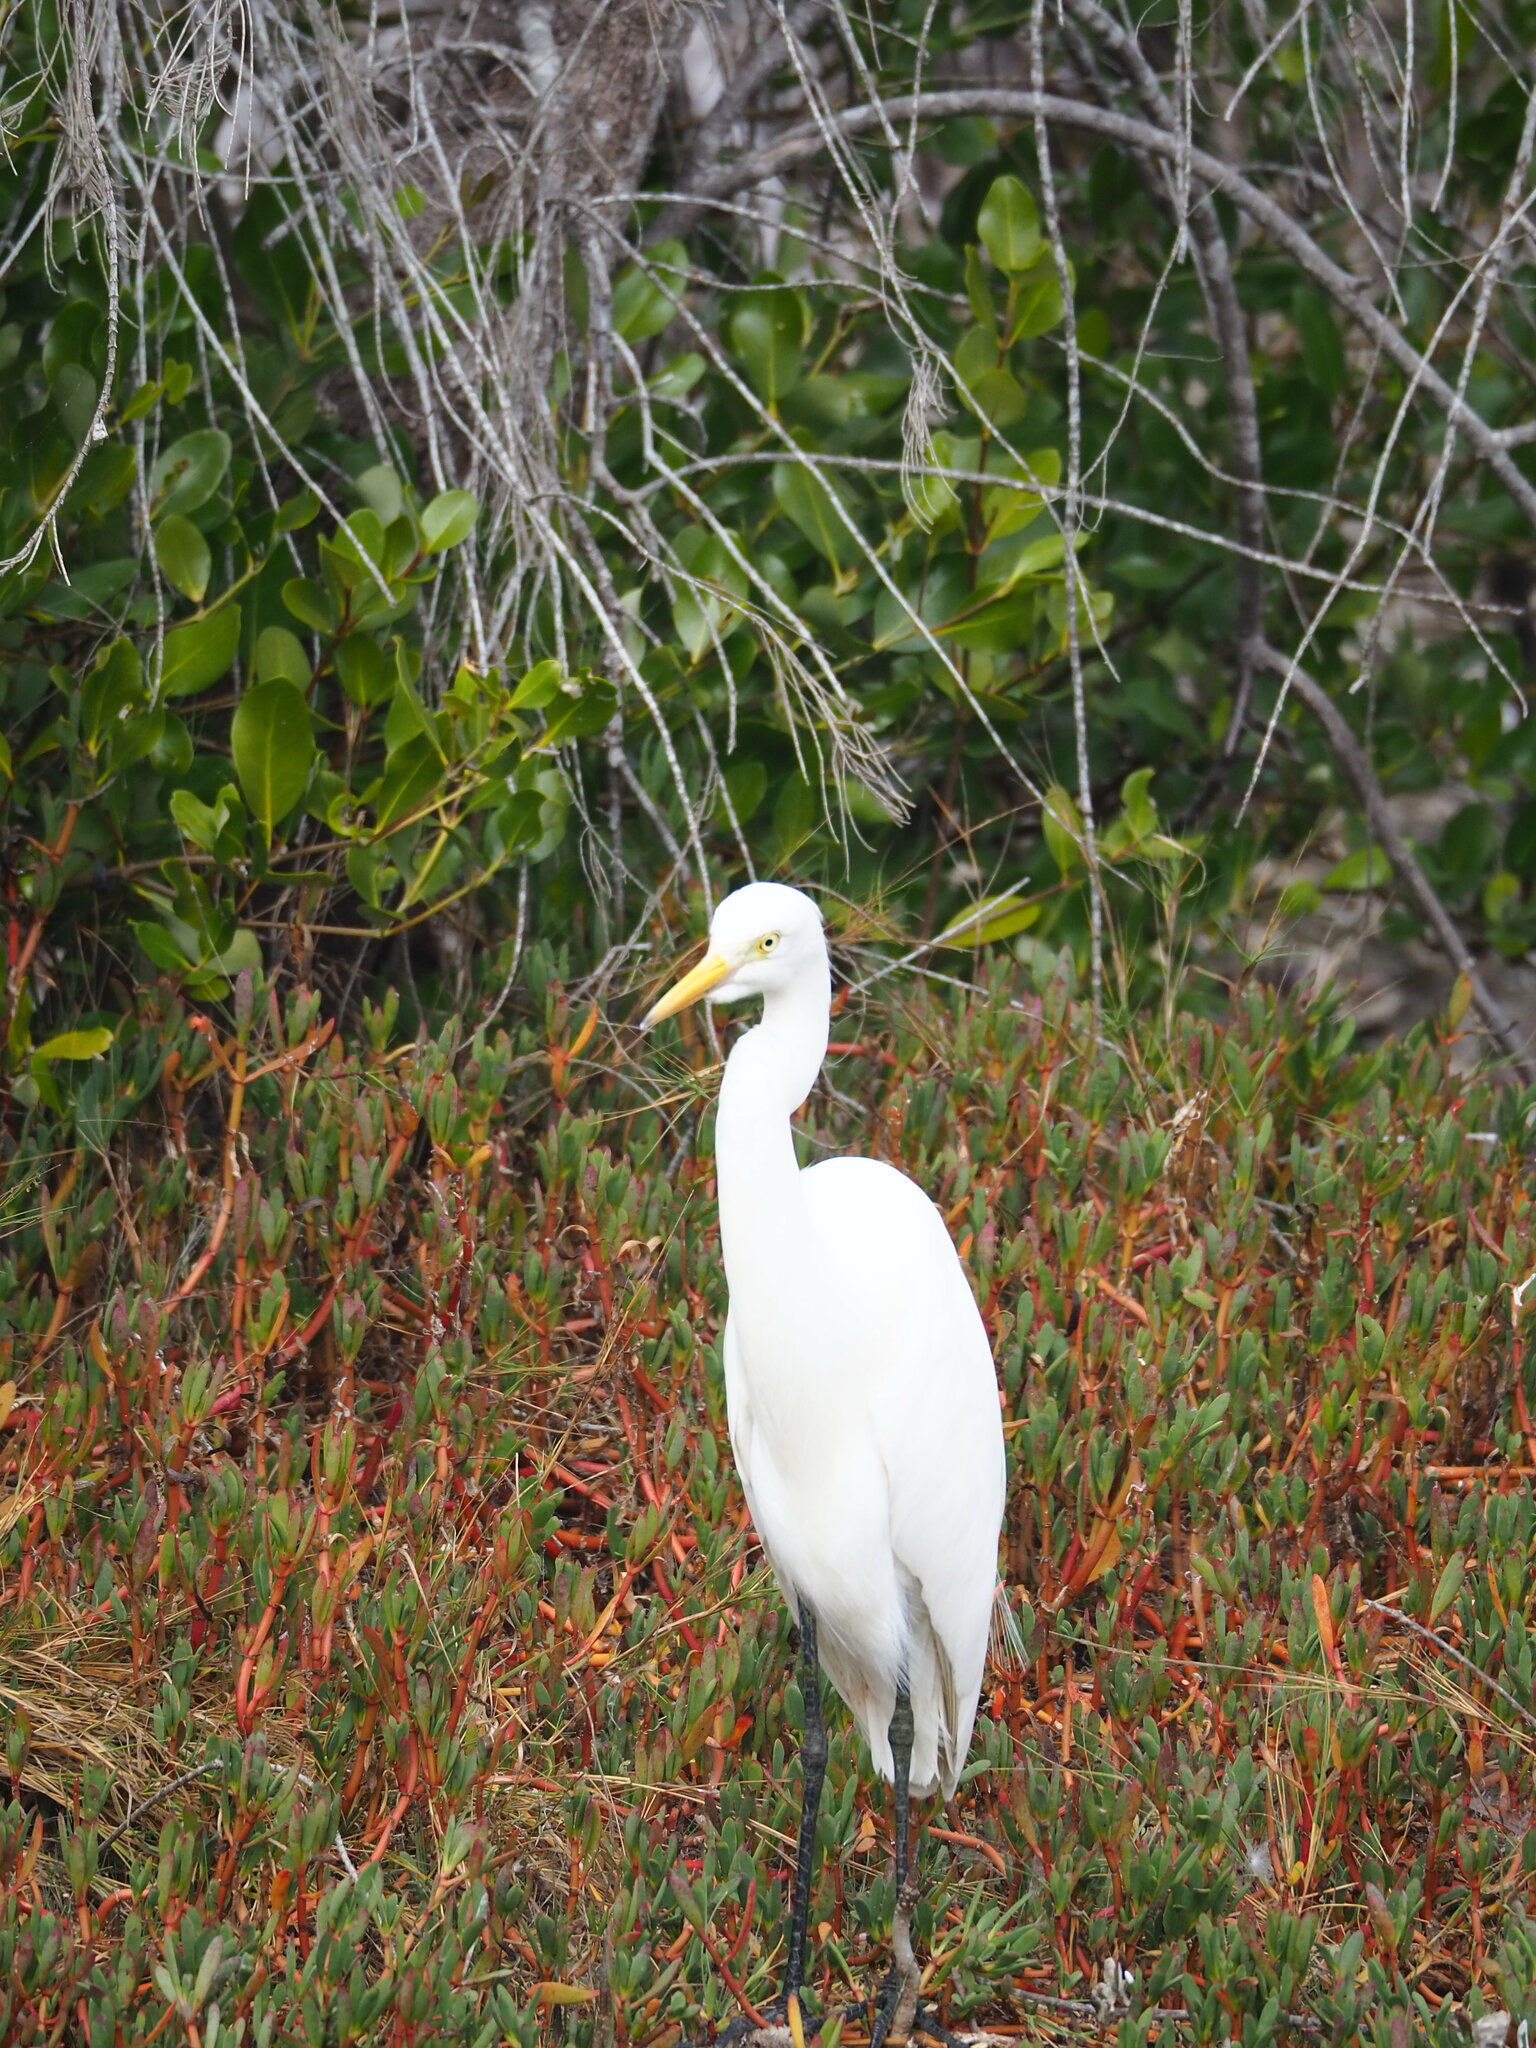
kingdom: Animalia
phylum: Chordata
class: Aves
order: Pelecaniformes
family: Ardeidae
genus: Egretta
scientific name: Egretta intermedia
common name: Intermediate egret
